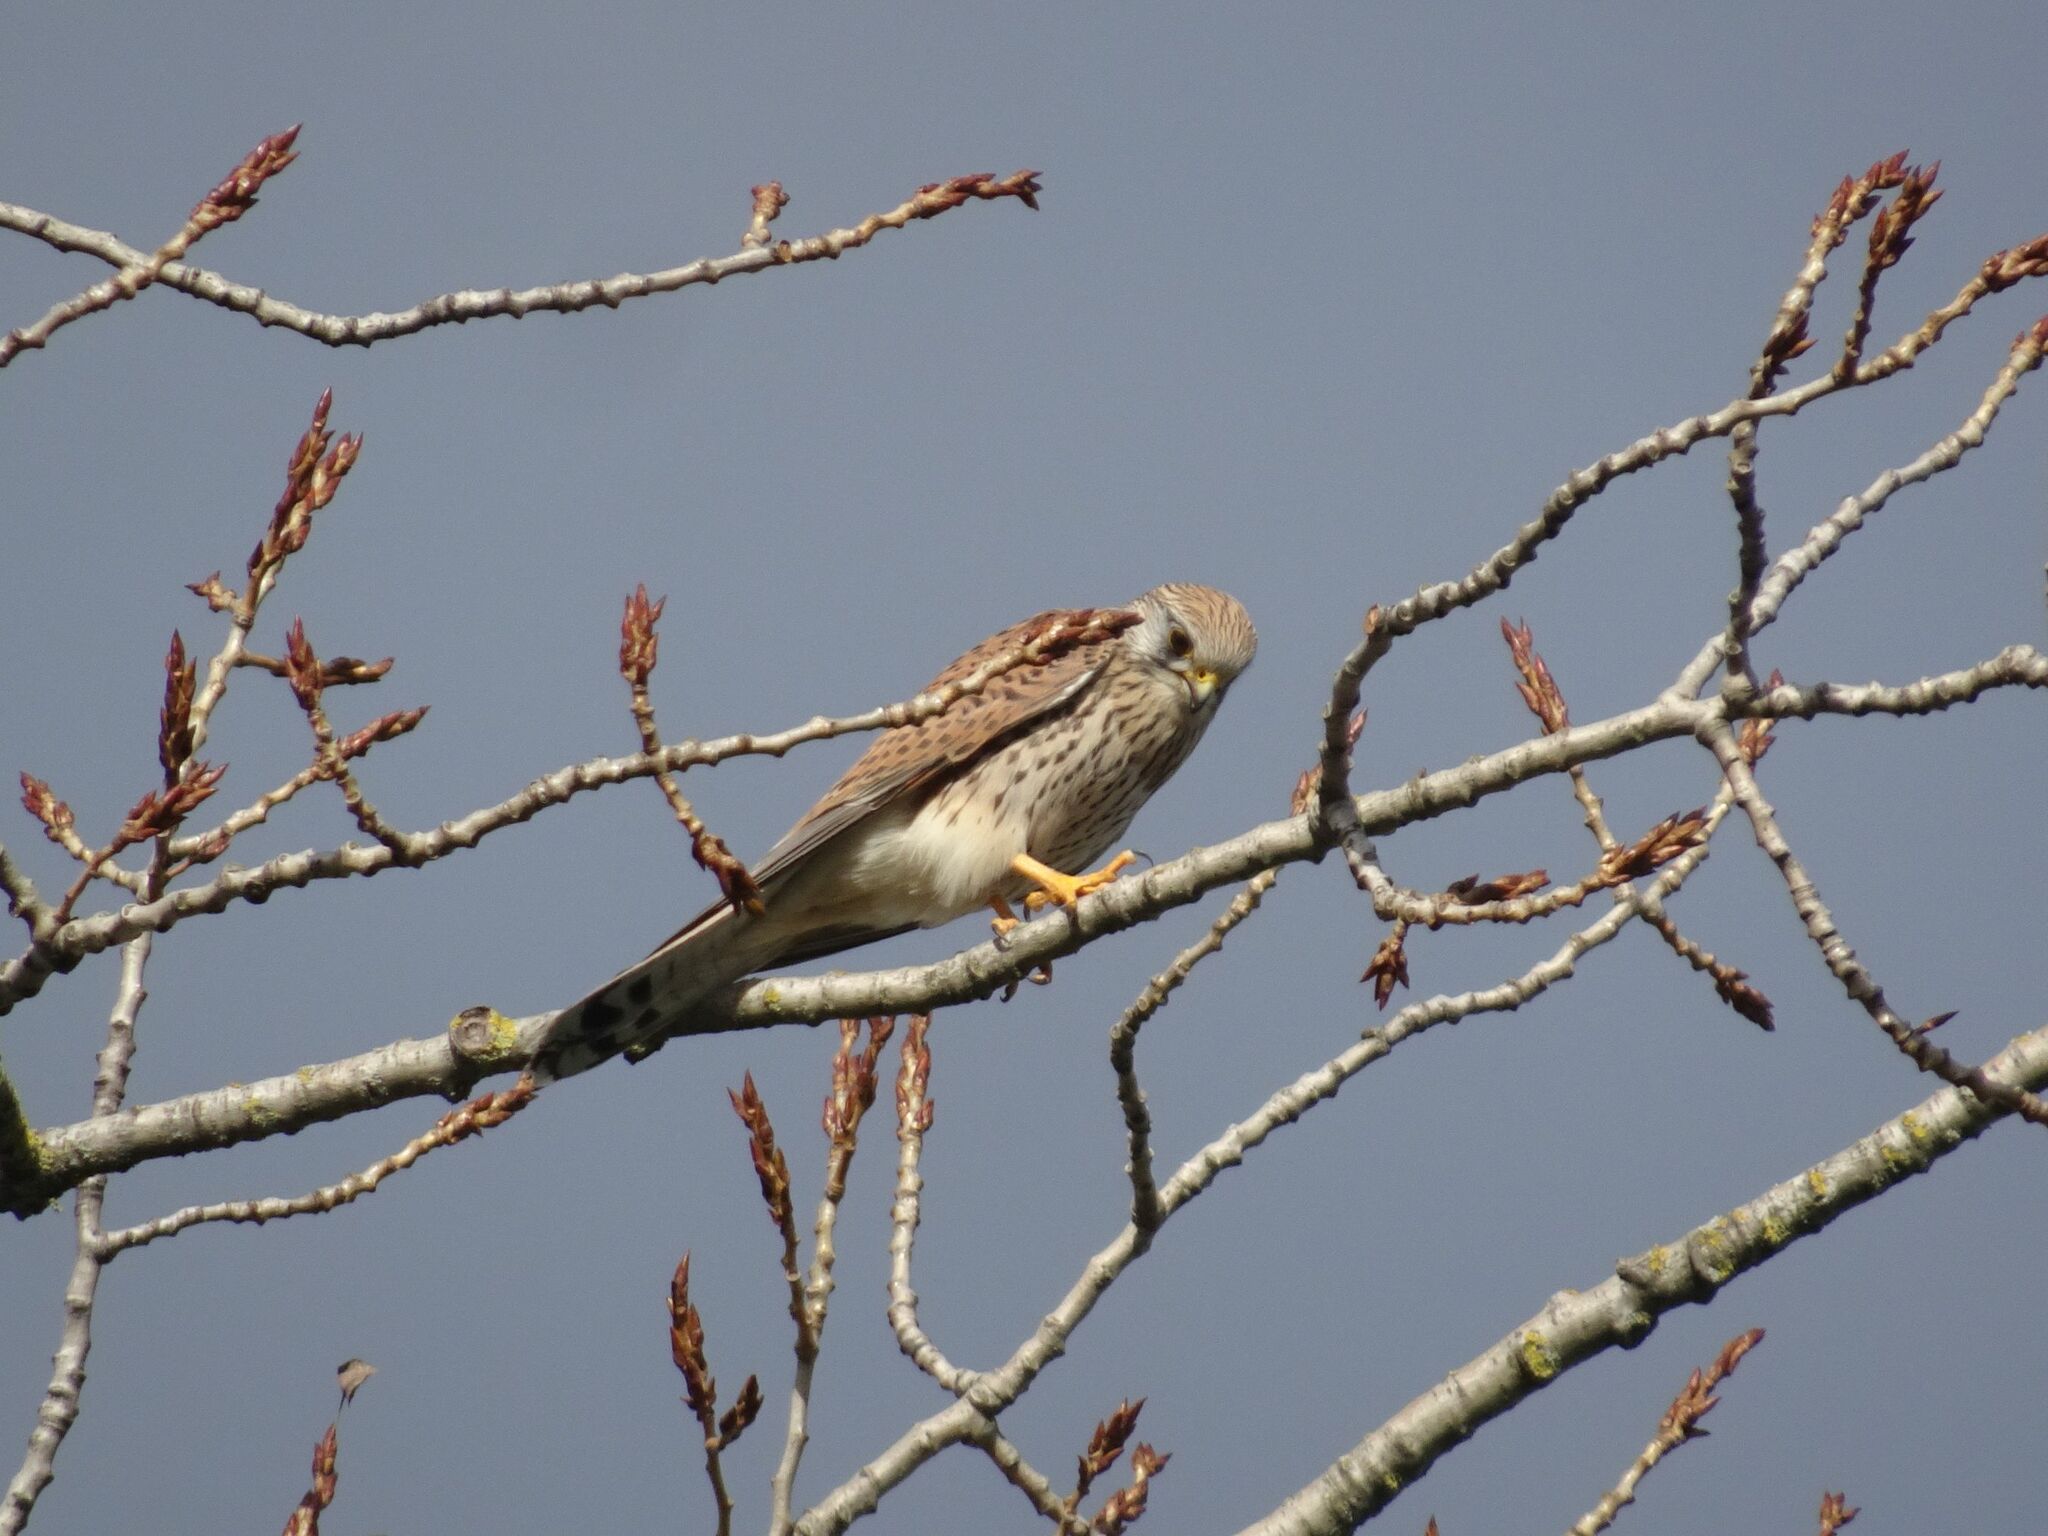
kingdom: Animalia
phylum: Chordata
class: Aves
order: Falconiformes
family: Falconidae
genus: Falco
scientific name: Falco tinnunculus
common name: Common kestrel
